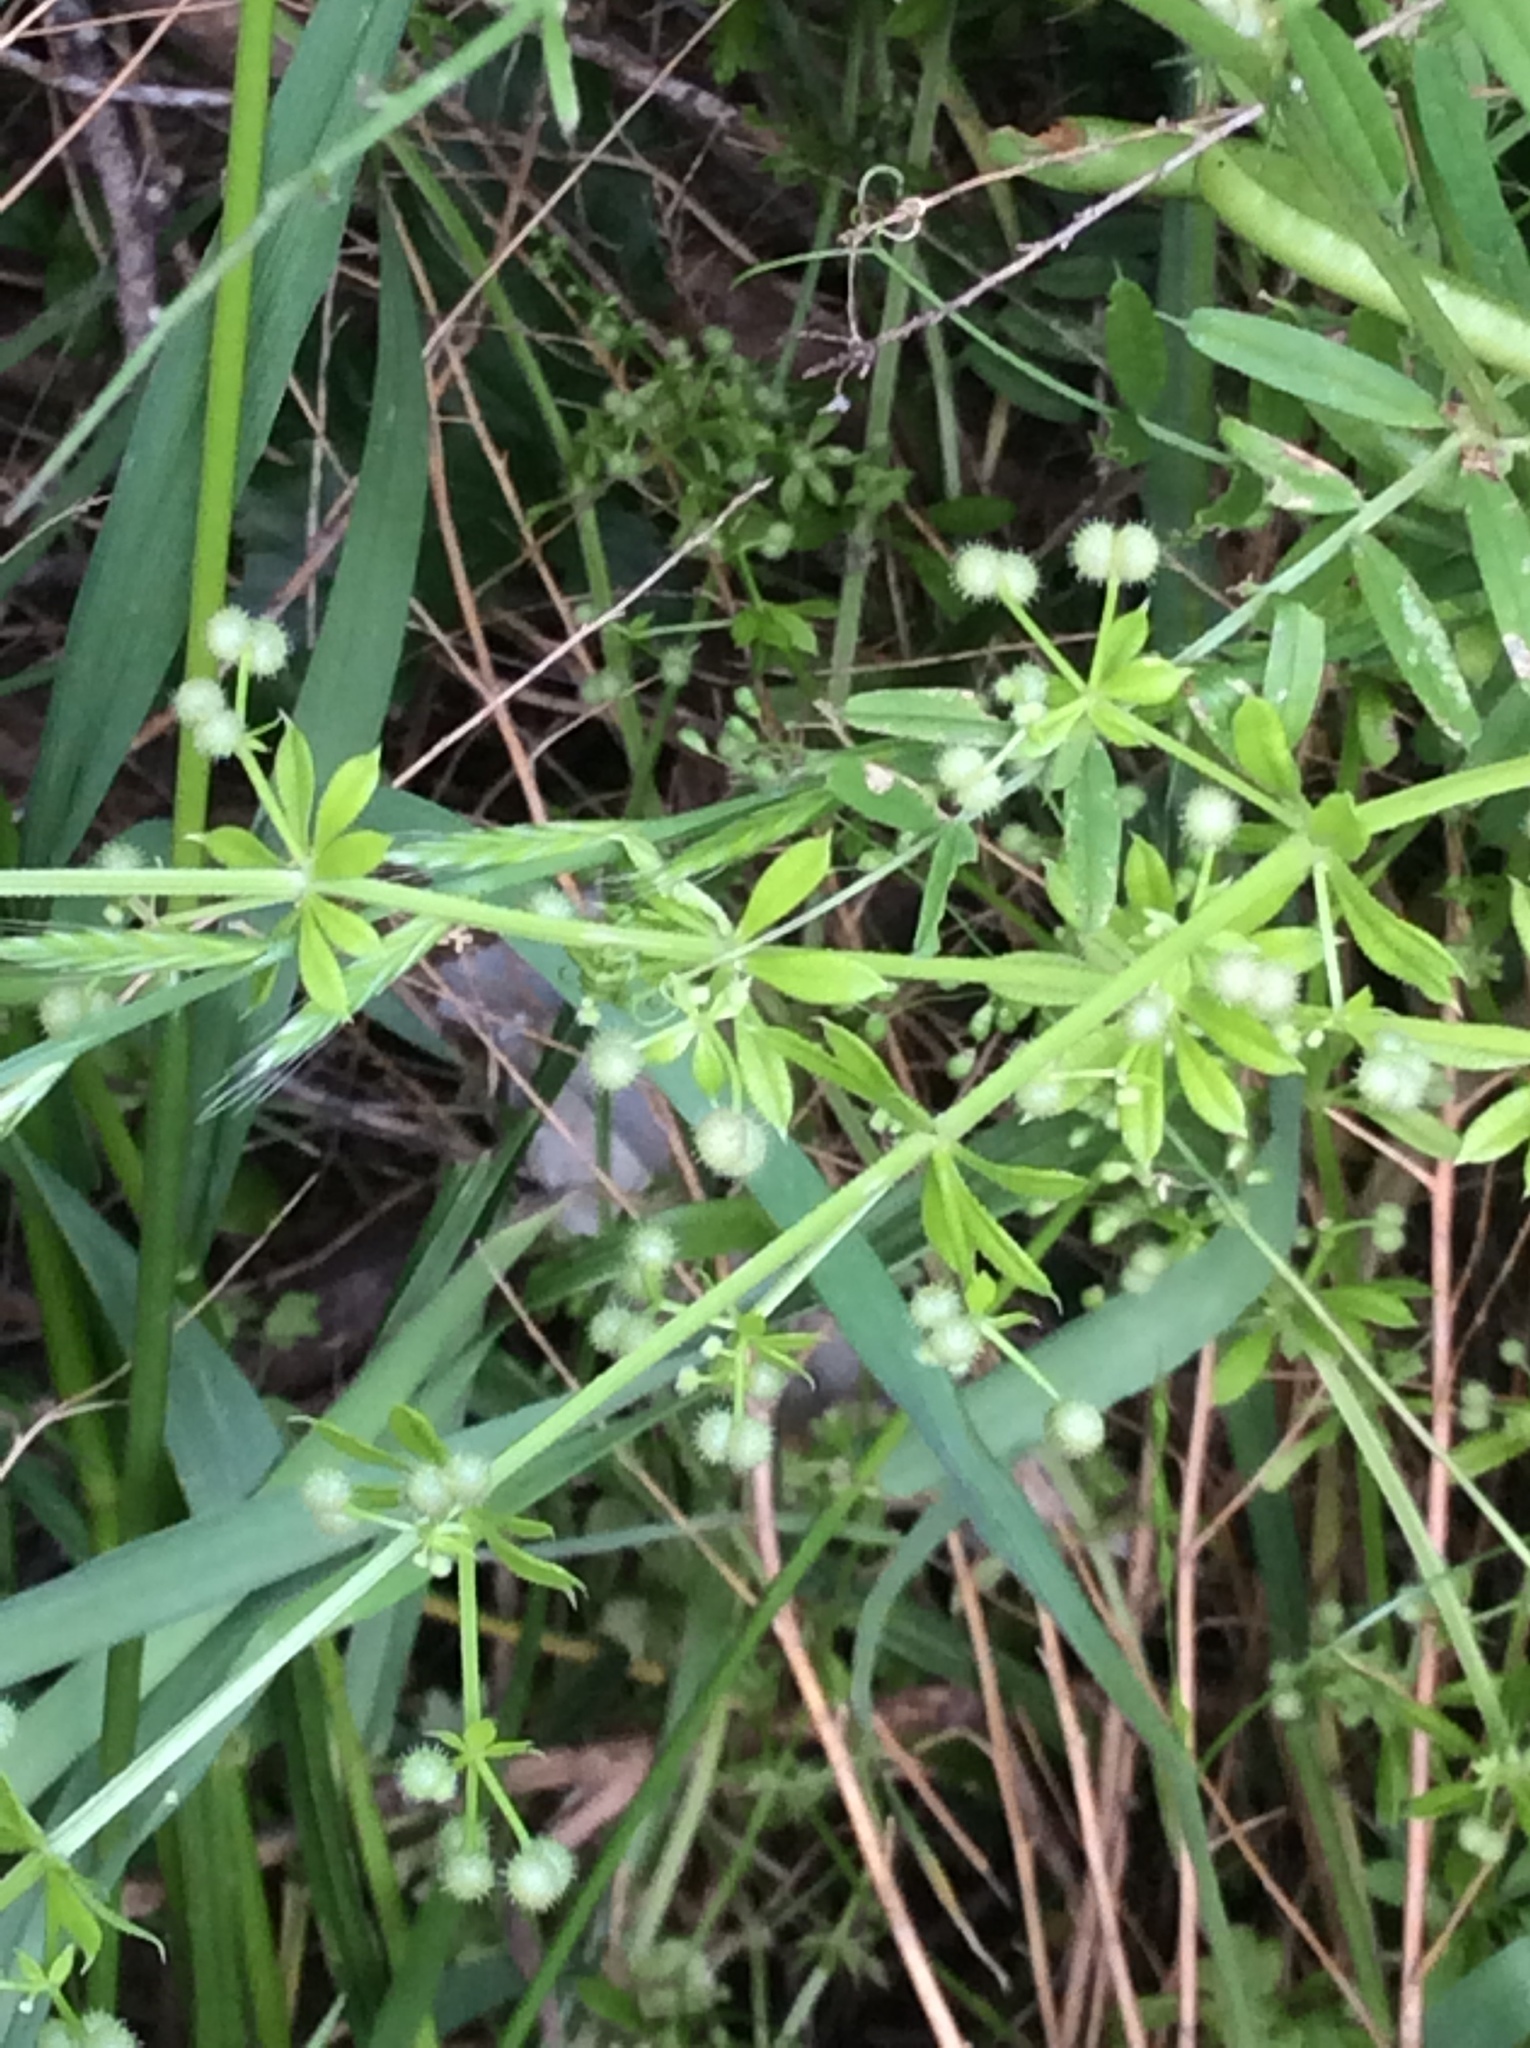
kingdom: Plantae
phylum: Tracheophyta
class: Magnoliopsida
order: Gentianales
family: Rubiaceae
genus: Galium
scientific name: Galium aparine
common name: Cleavers
